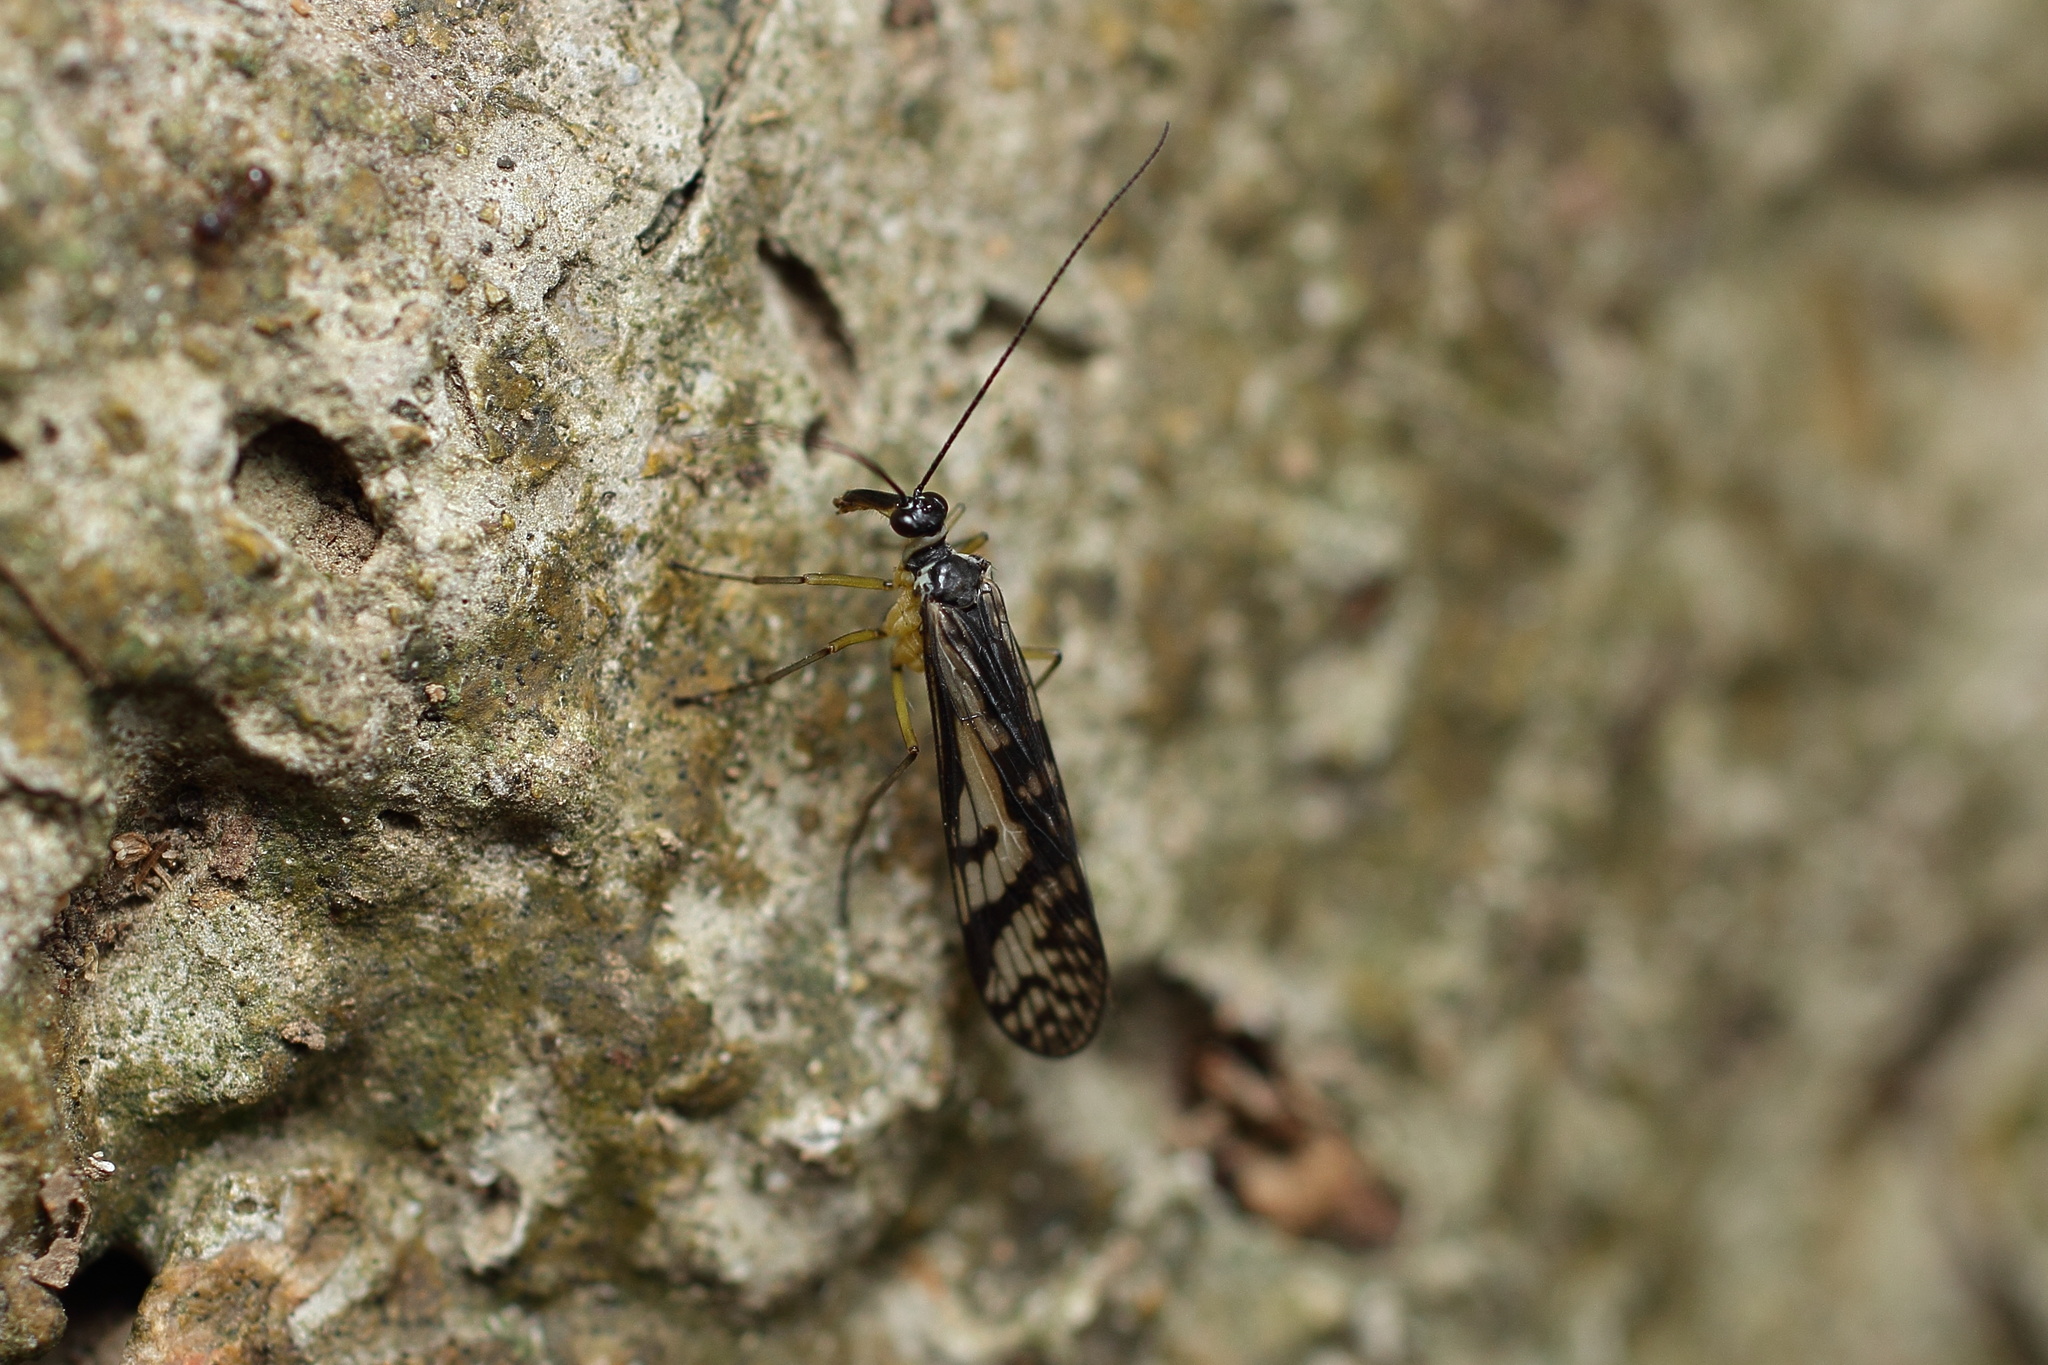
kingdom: Animalia
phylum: Arthropoda
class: Insecta
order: Mecoptera
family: Panorpidae
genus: Panorpa
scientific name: Panorpa multifasciaria
